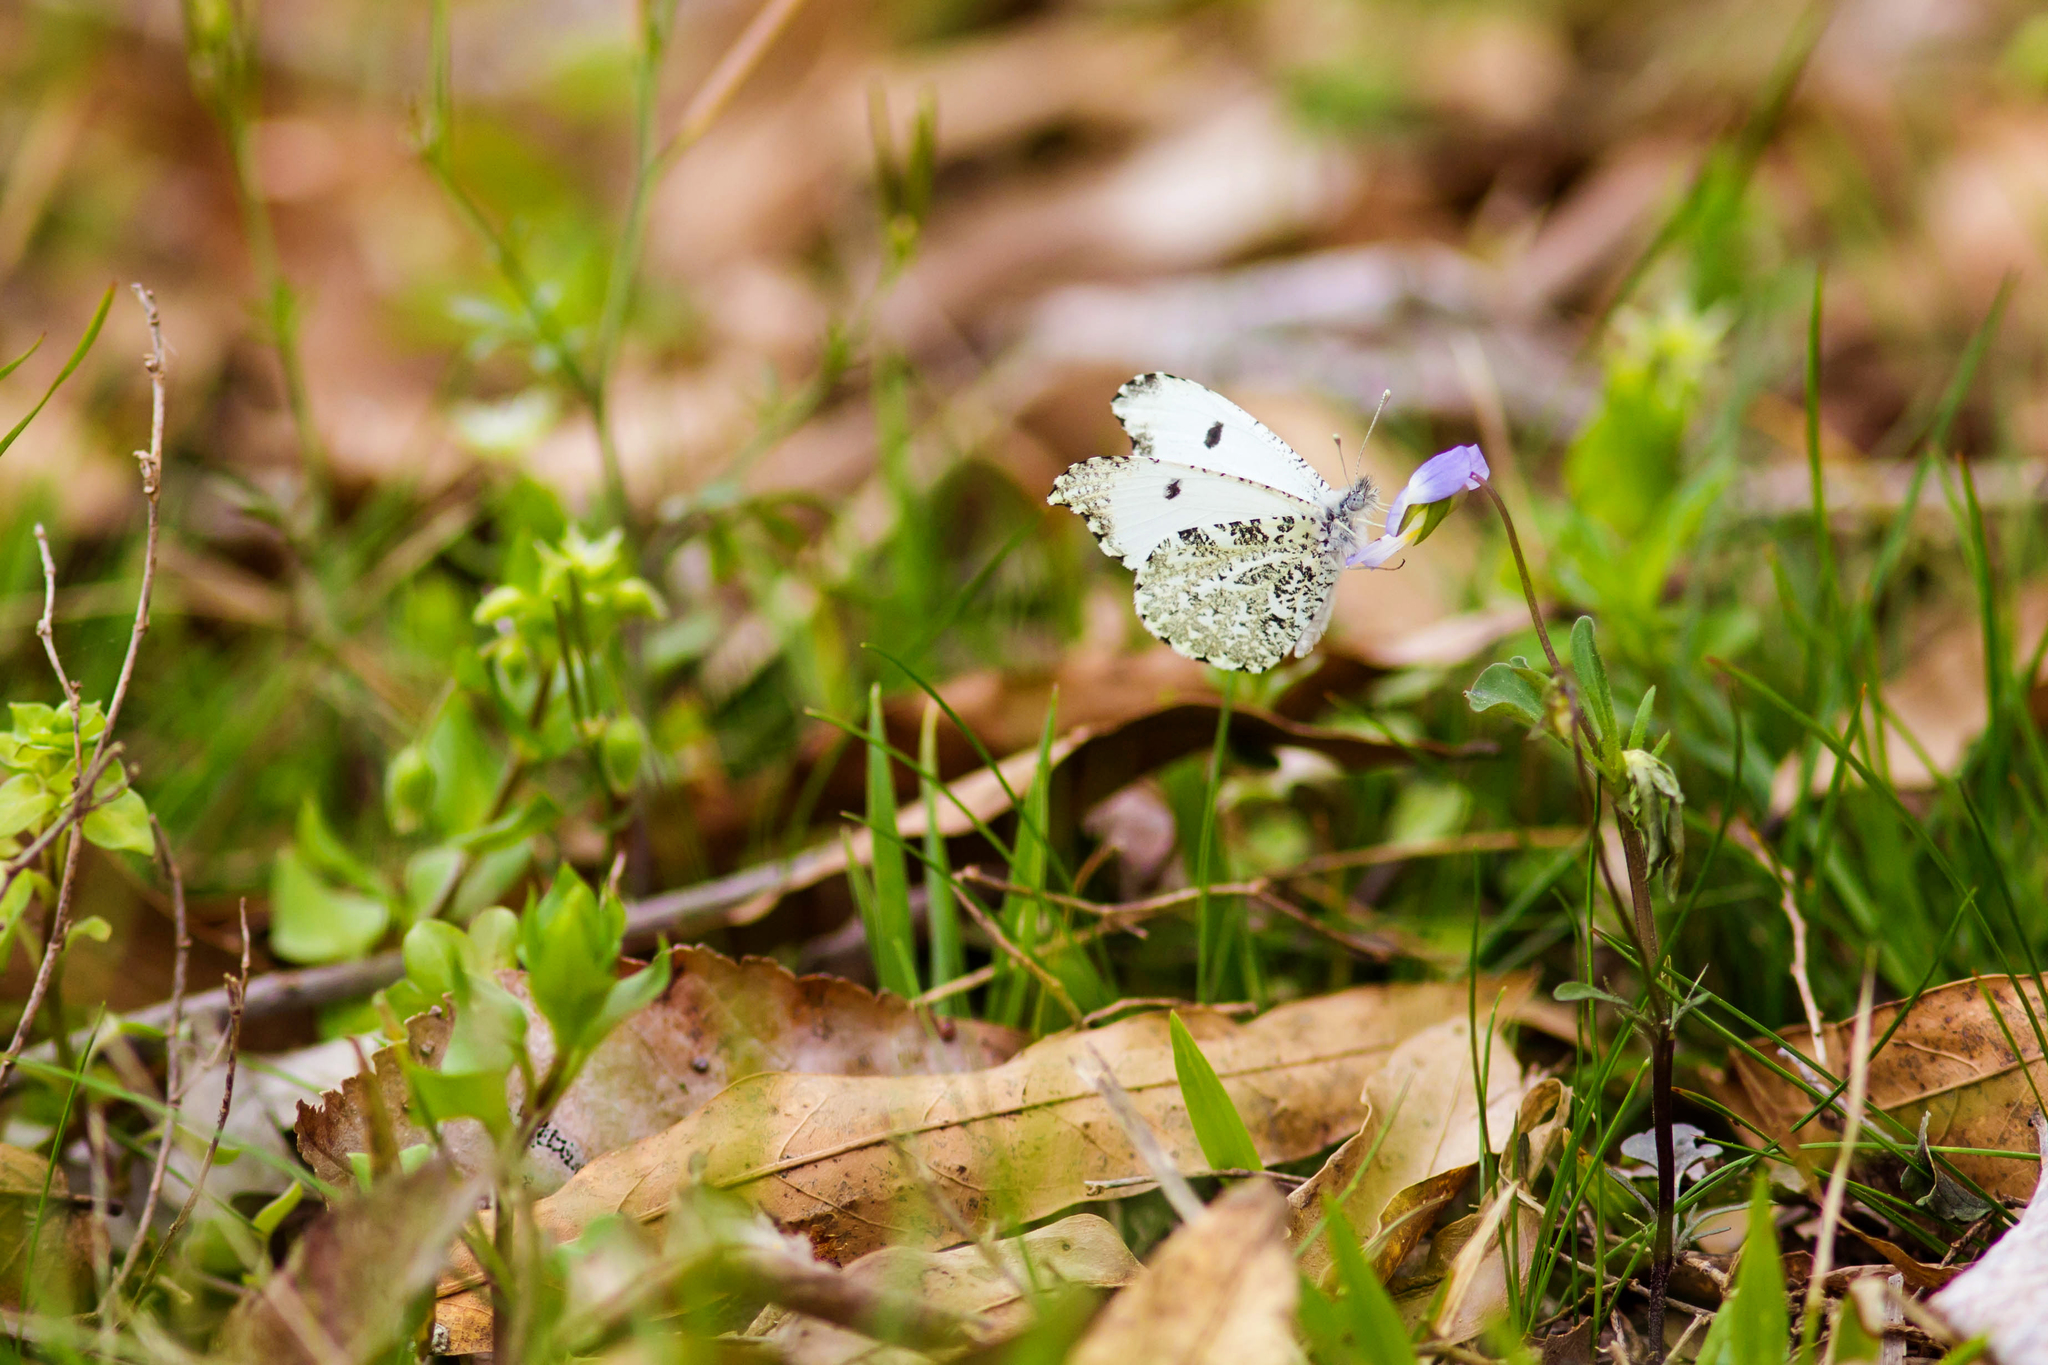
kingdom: Animalia
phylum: Arthropoda
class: Insecta
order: Lepidoptera
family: Pieridae
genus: Anthocharis
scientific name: Anthocharis midea
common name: Falcate orangetip
